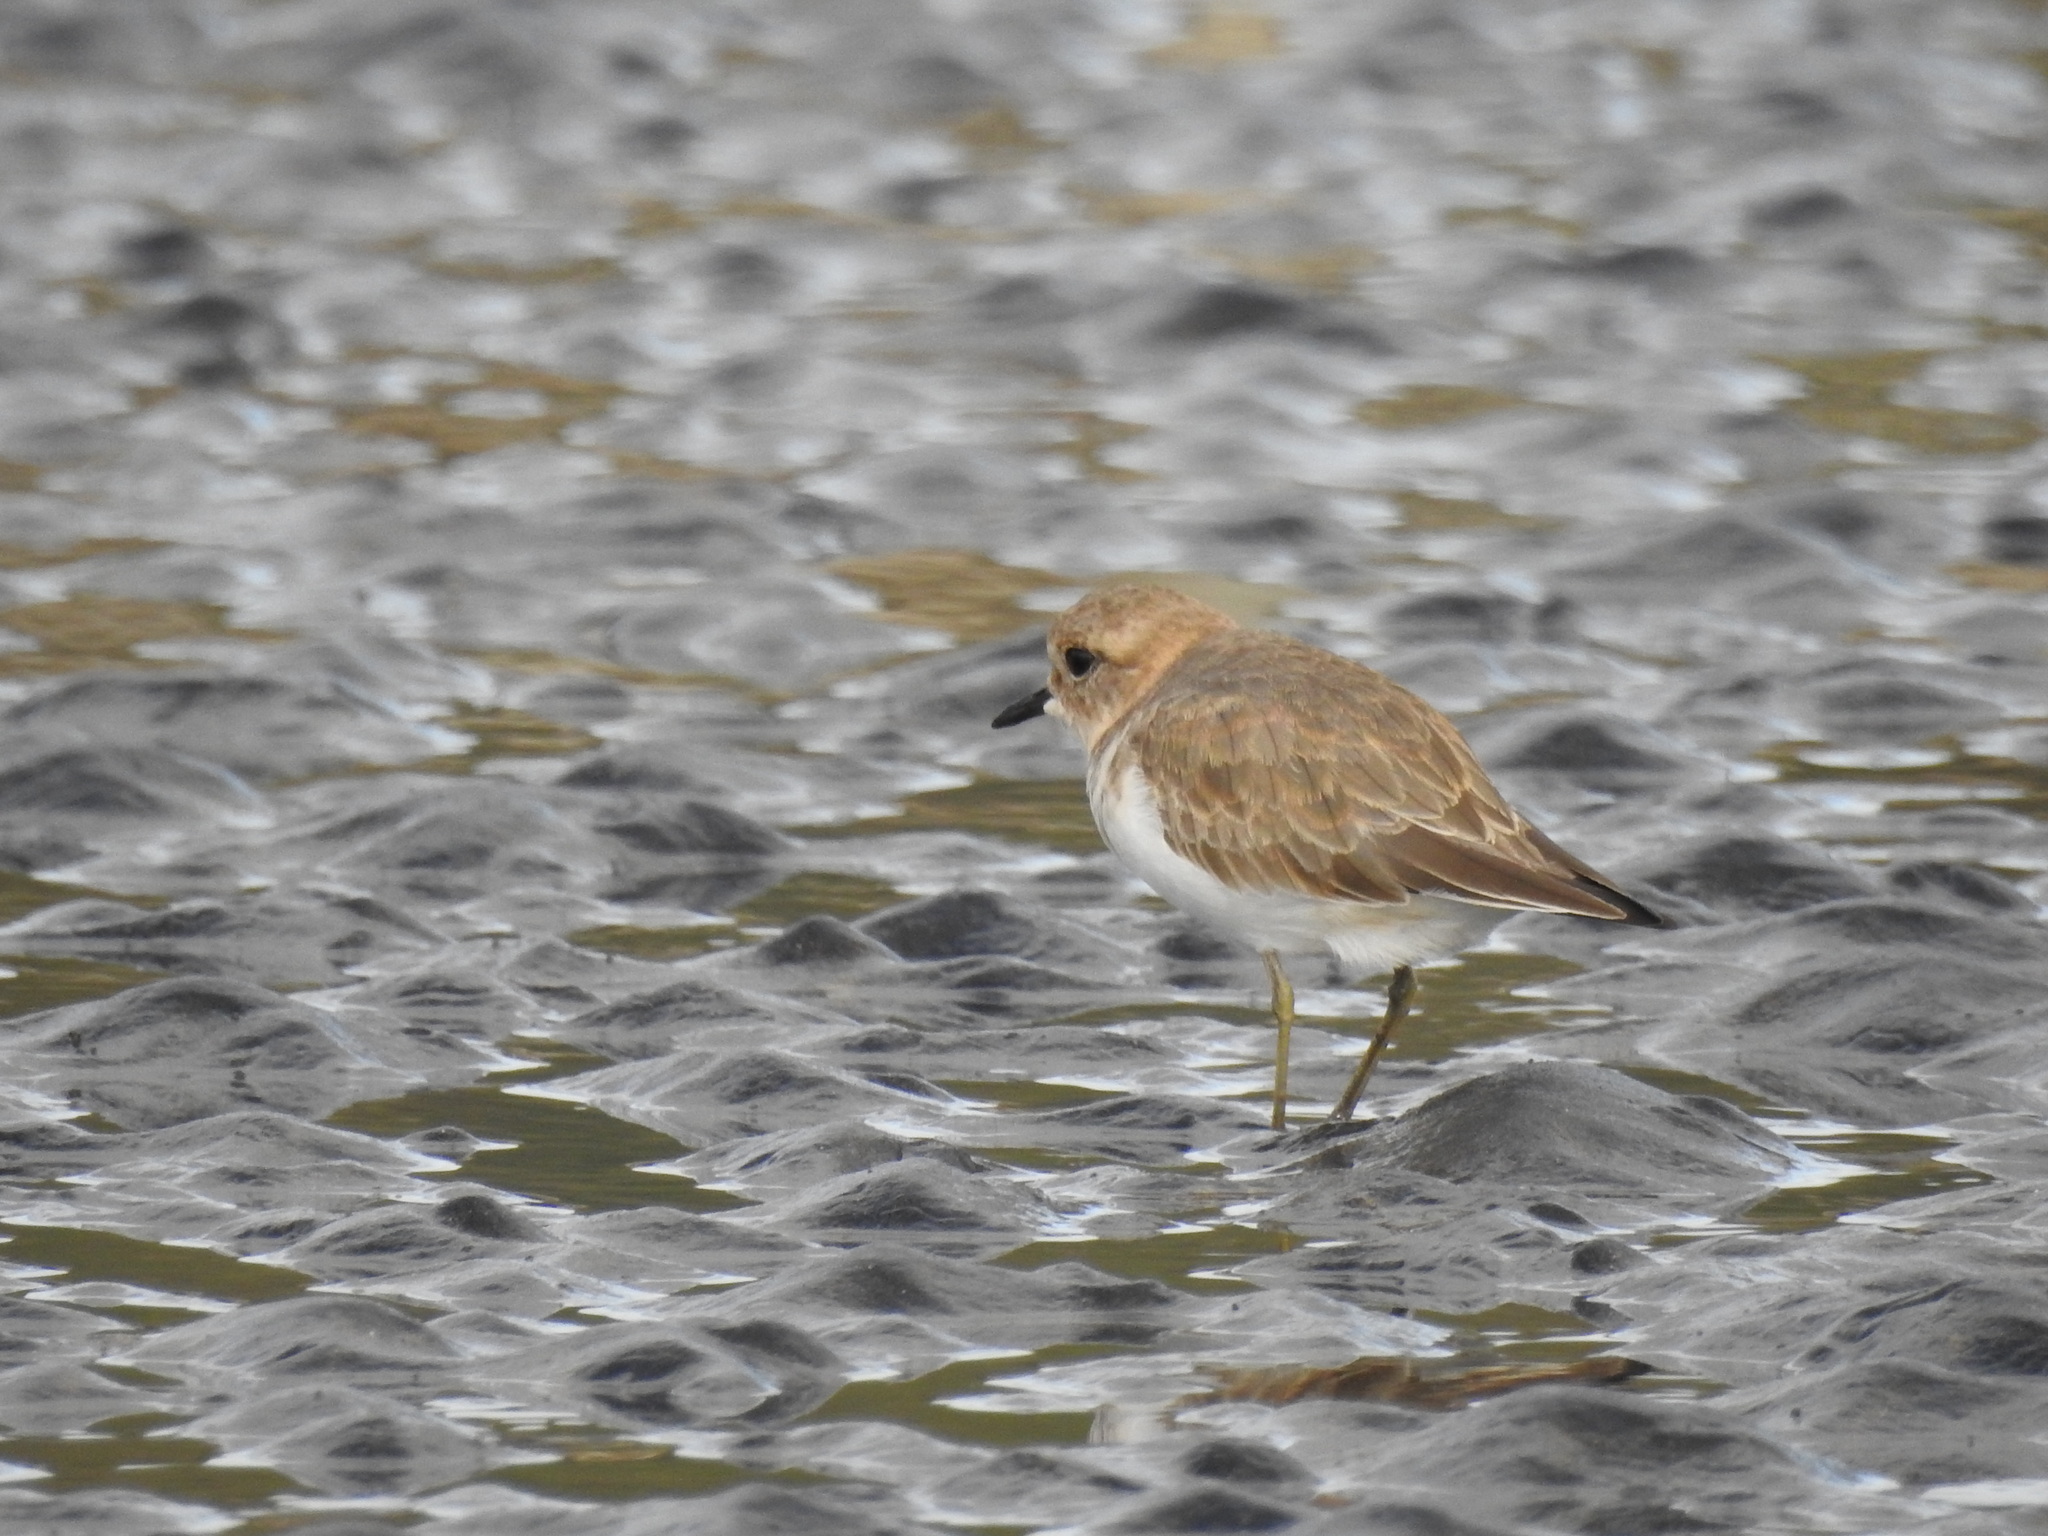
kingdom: Animalia
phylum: Chordata
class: Aves
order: Charadriiformes
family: Charadriidae
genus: Anarhynchus
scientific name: Anarhynchus
